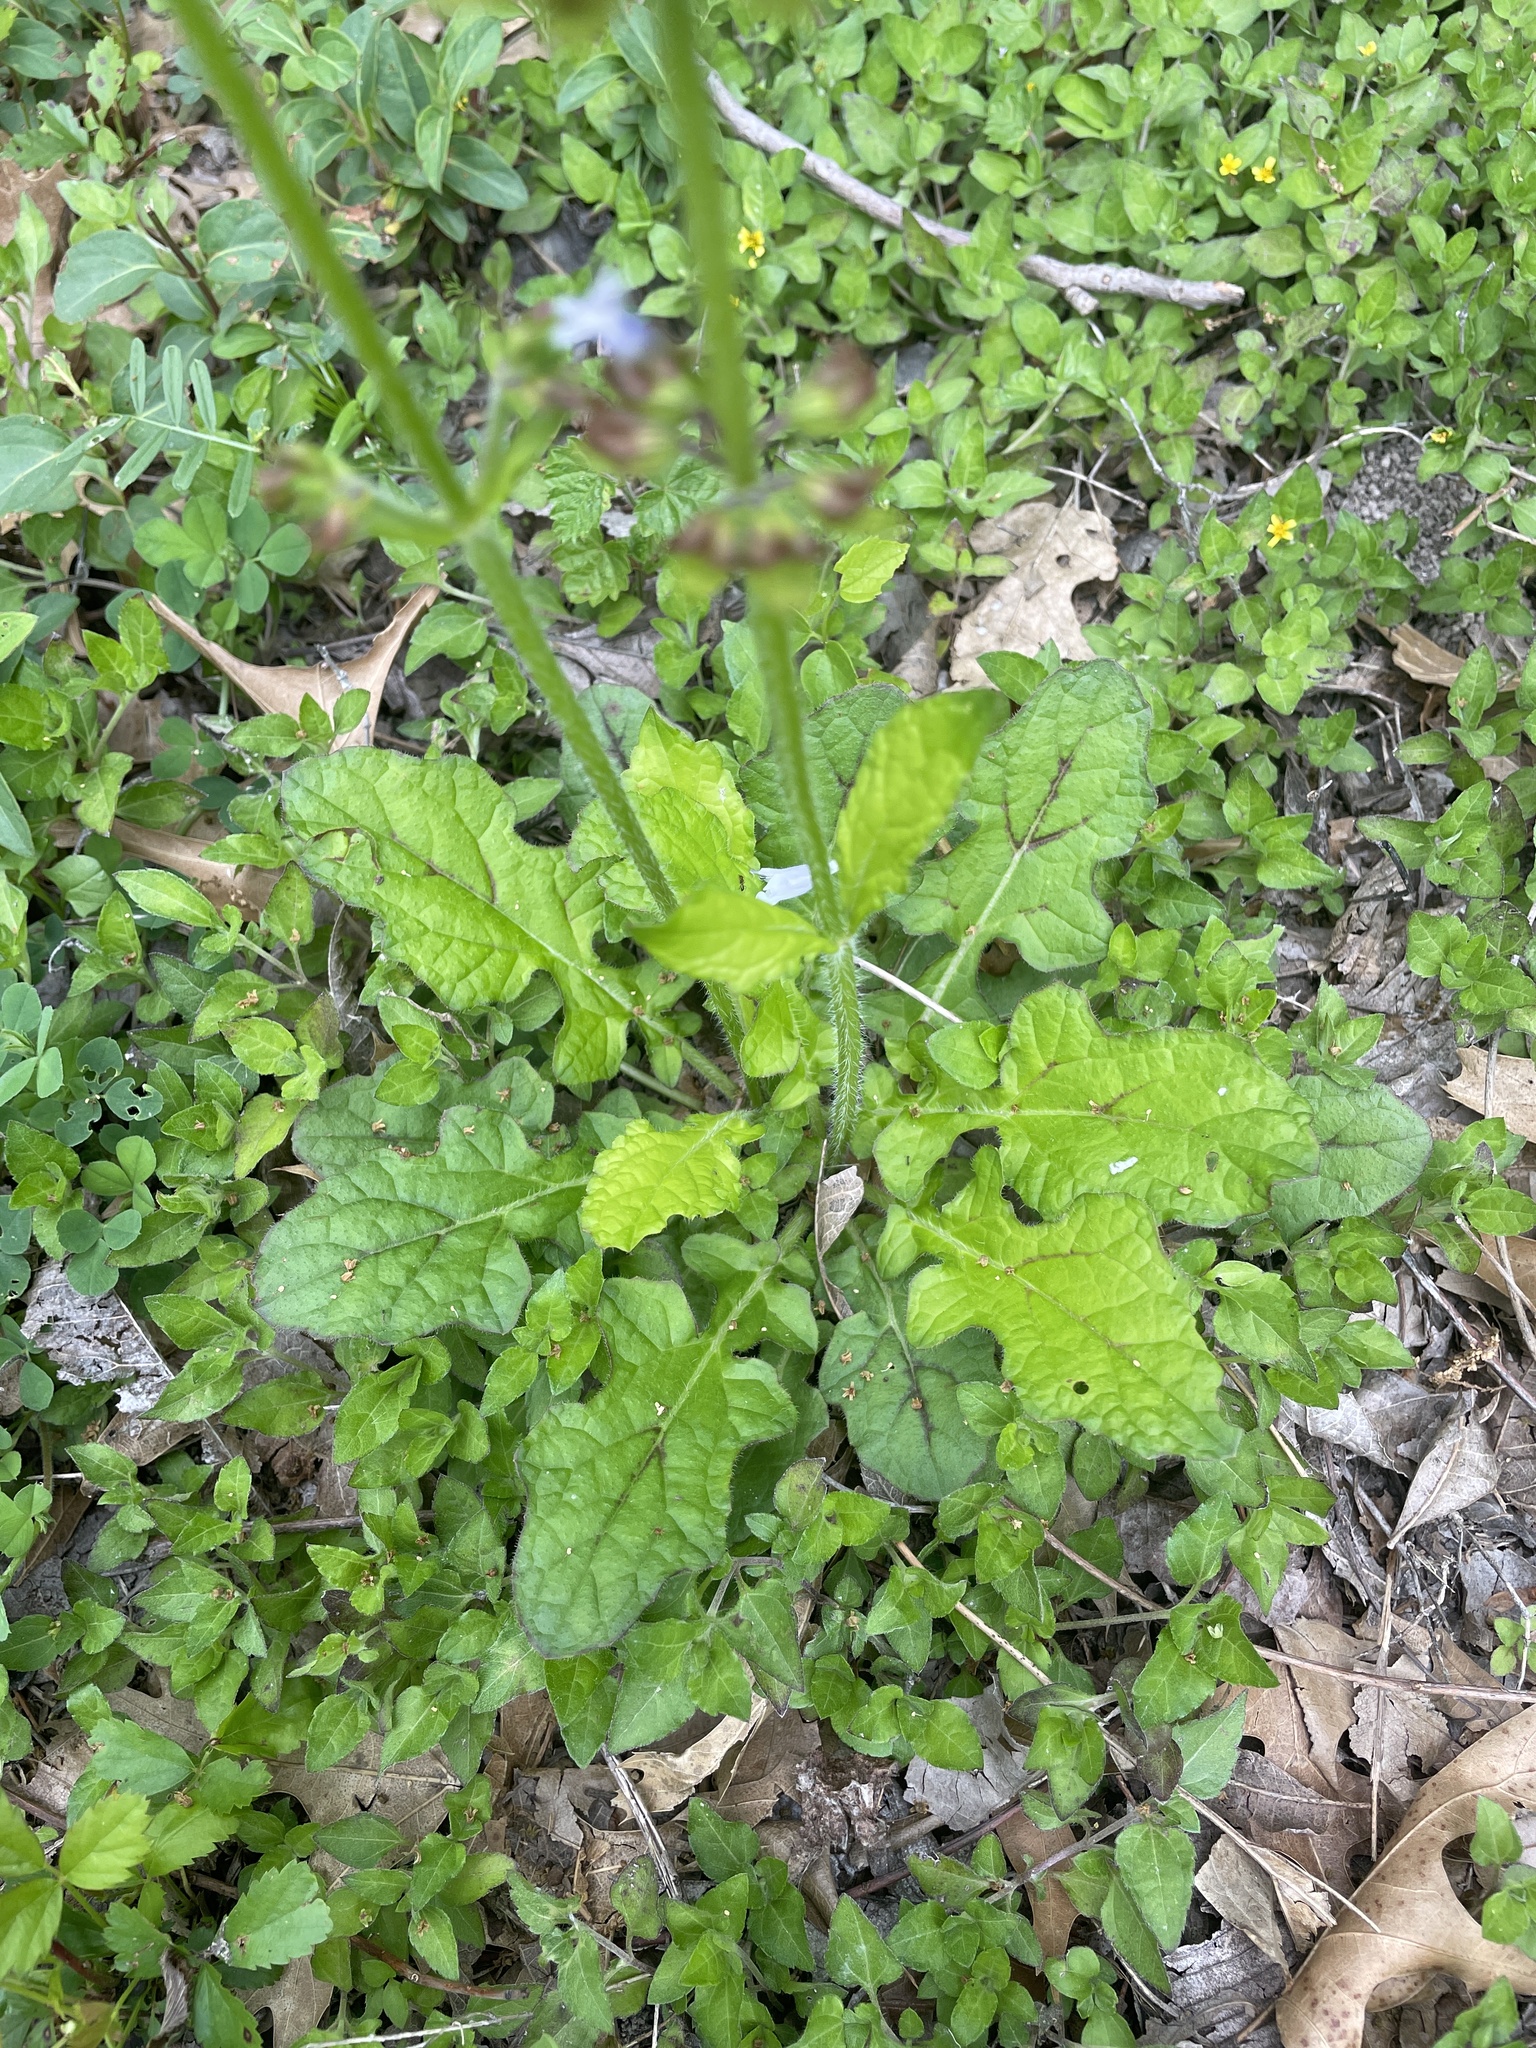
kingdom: Plantae
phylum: Tracheophyta
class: Magnoliopsida
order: Lamiales
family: Lamiaceae
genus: Salvia
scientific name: Salvia lyrata
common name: Cancerweed
